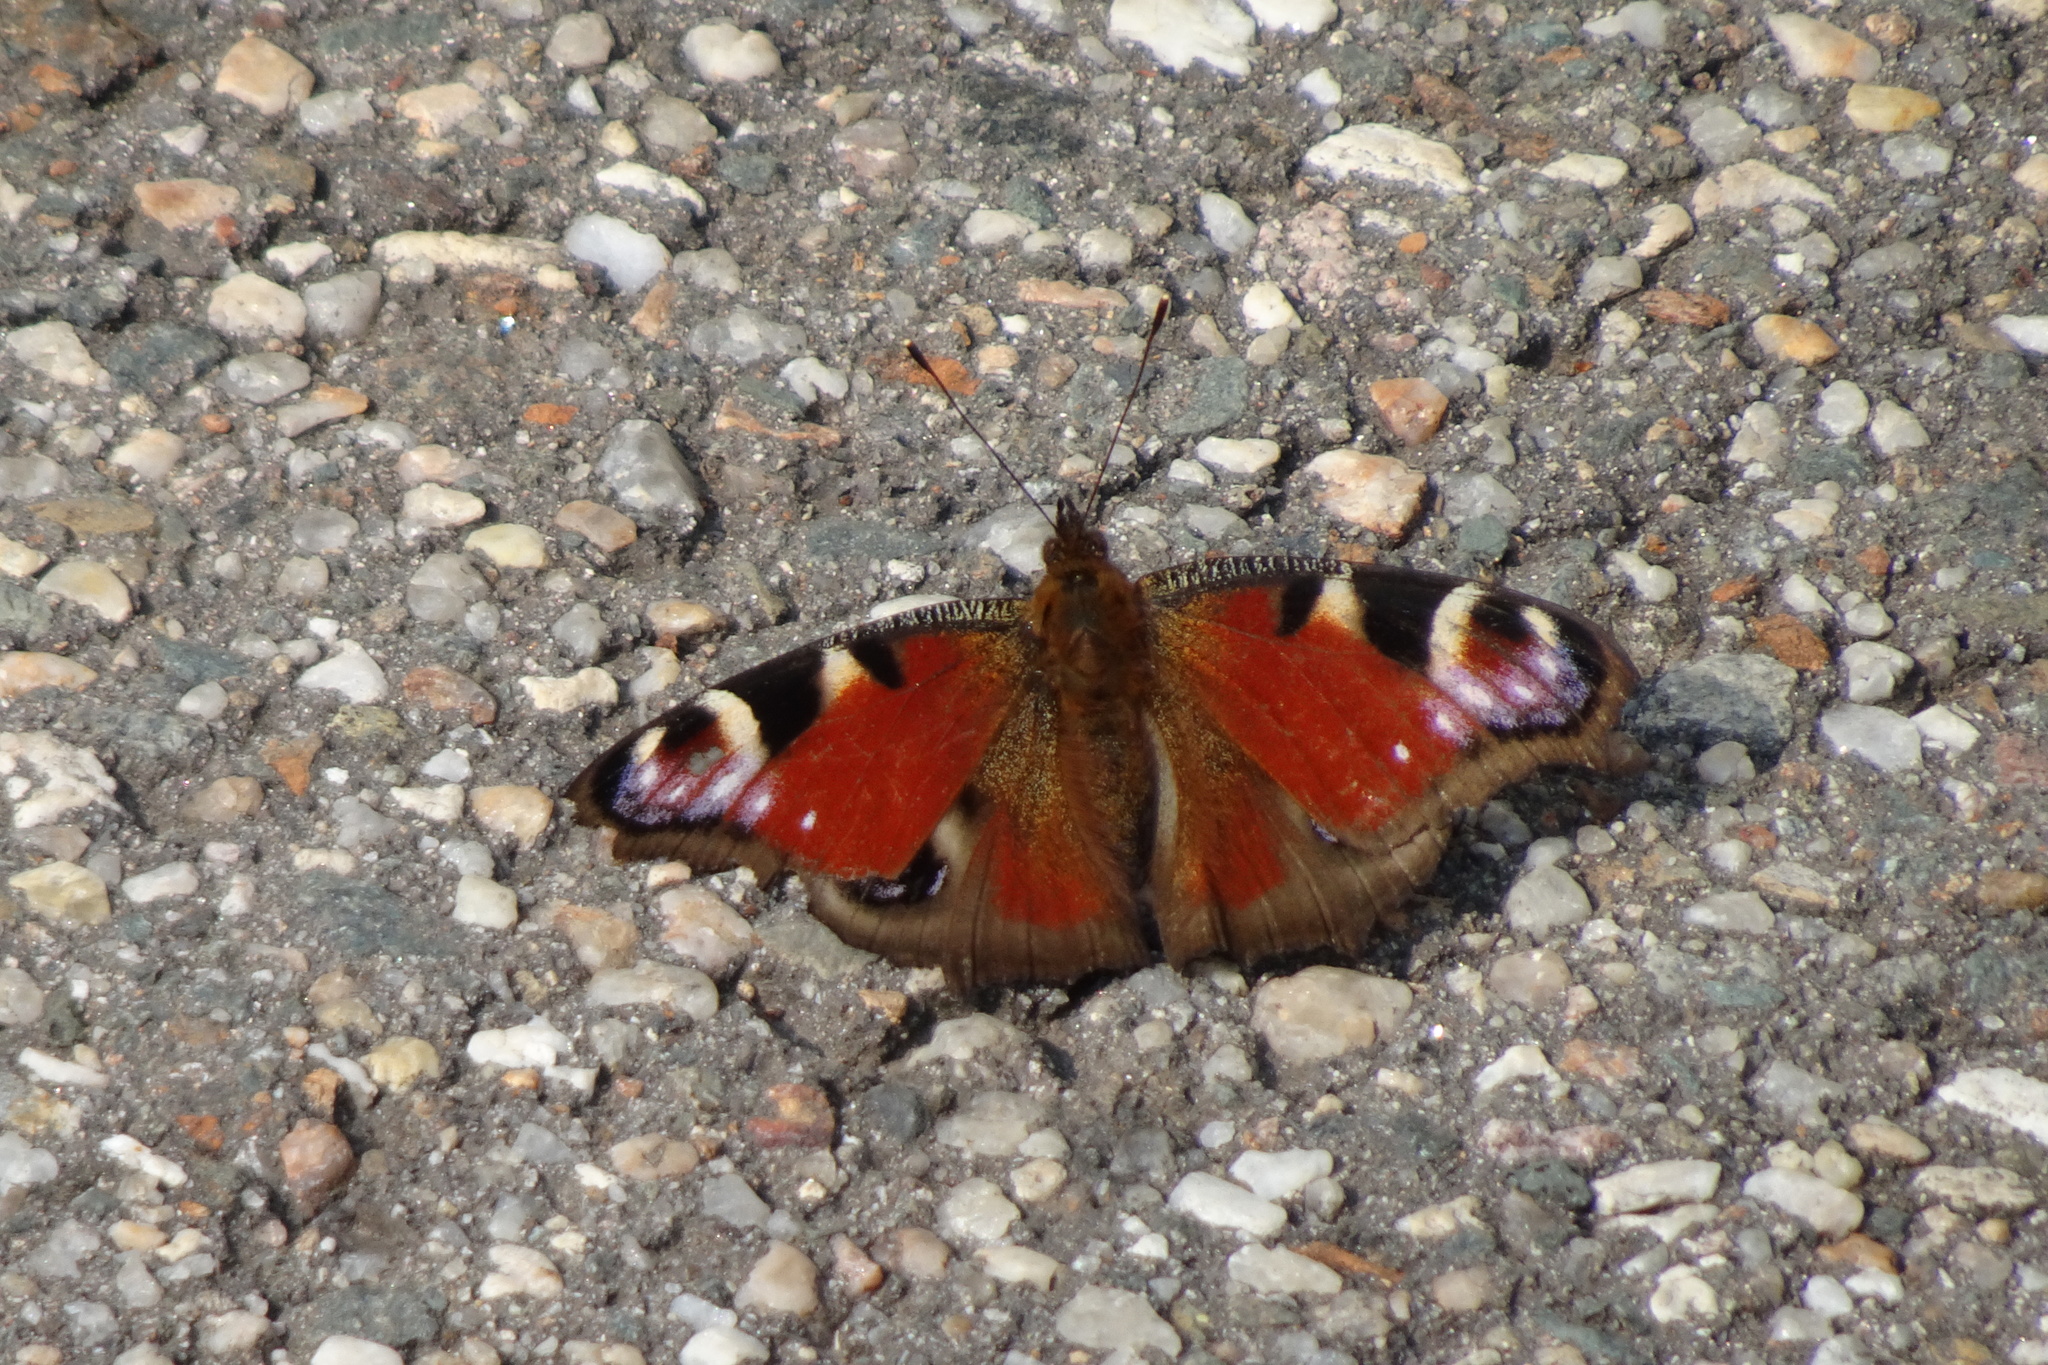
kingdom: Animalia
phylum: Arthropoda
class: Insecta
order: Lepidoptera
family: Nymphalidae
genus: Aglais
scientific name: Aglais io
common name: Peacock
